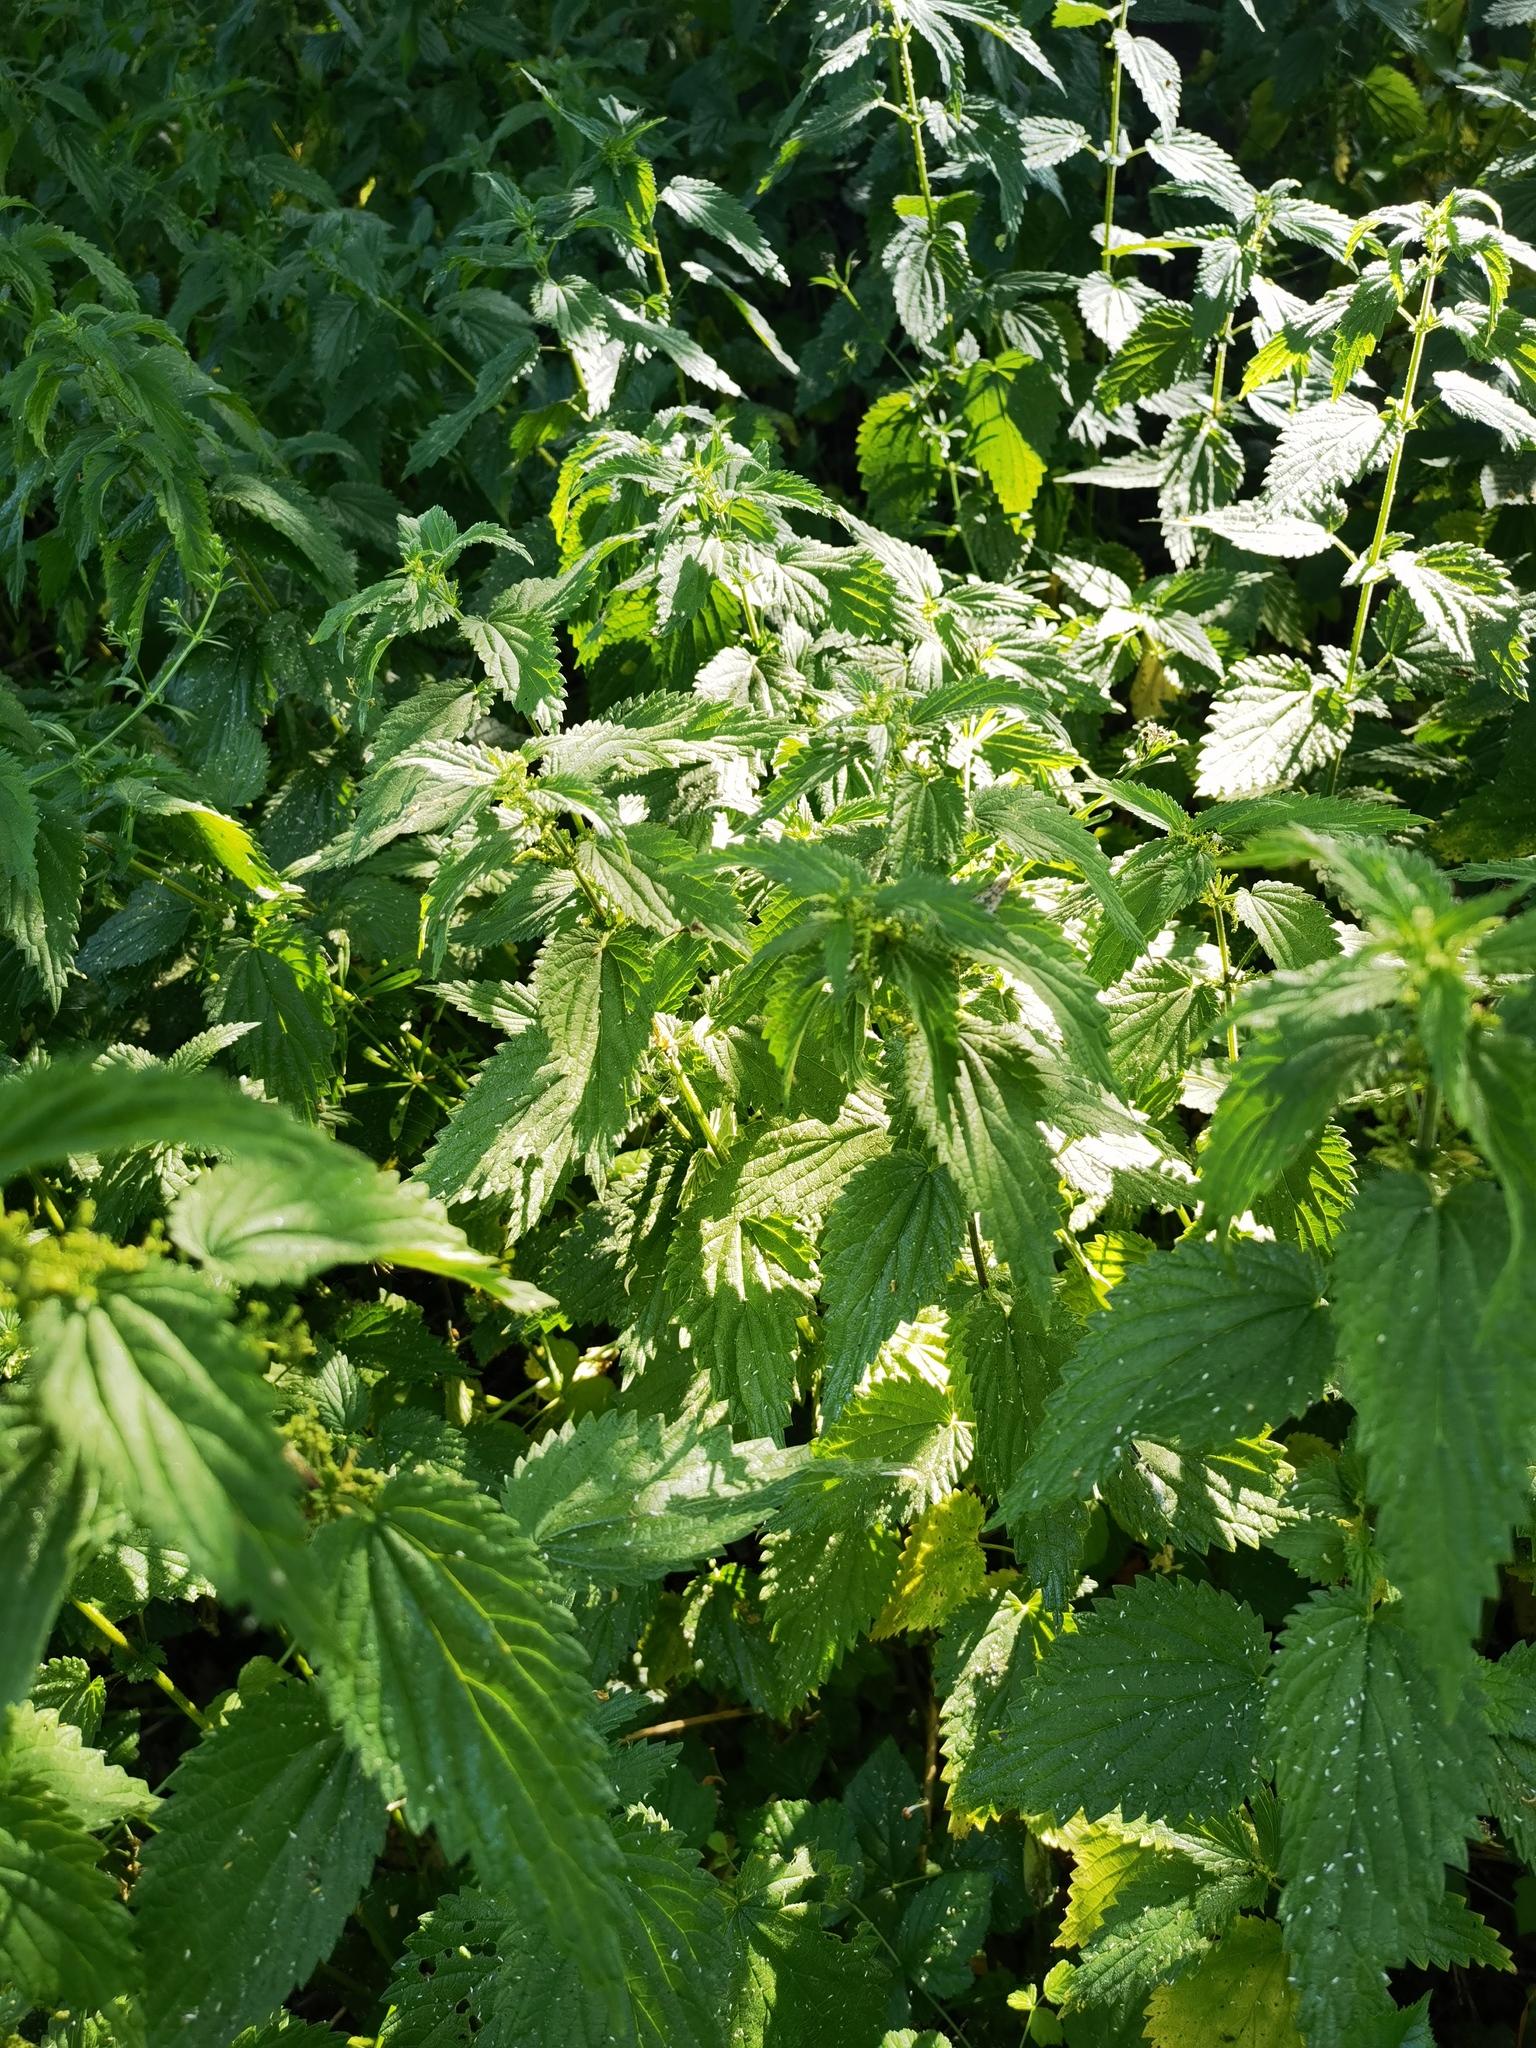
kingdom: Plantae
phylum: Tracheophyta
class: Magnoliopsida
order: Rosales
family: Urticaceae
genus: Urtica
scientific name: Urtica dioica
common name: Common nettle
